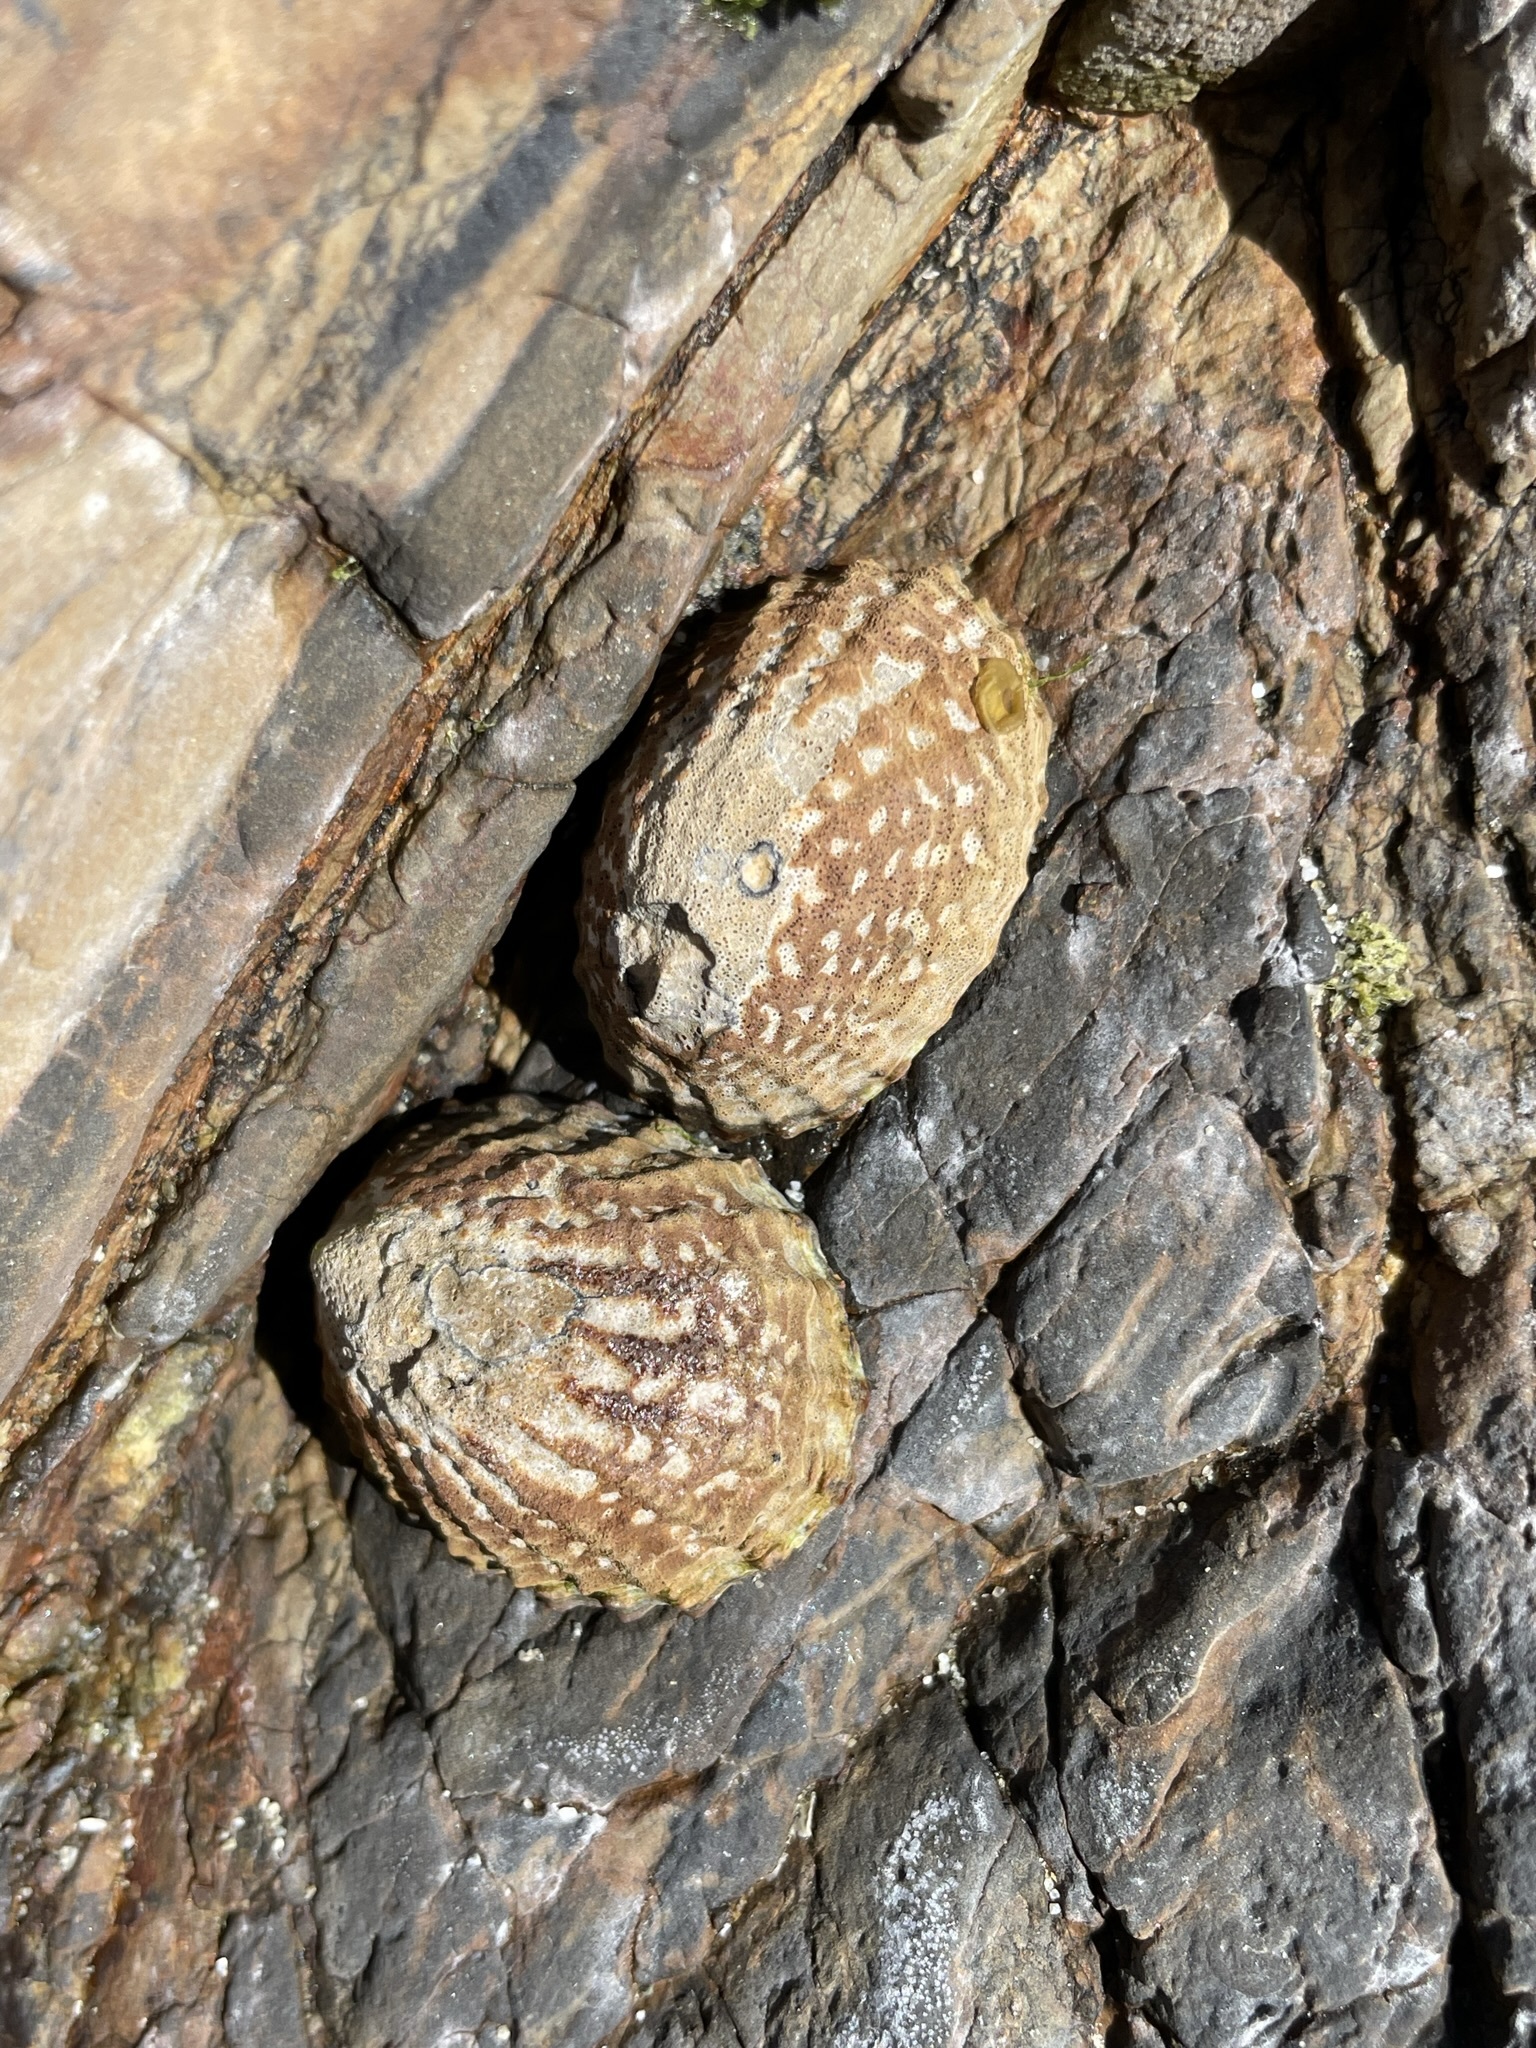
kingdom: Animalia
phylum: Mollusca
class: Gastropoda
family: Nacellidae
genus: Cellana
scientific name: Cellana denticulata
